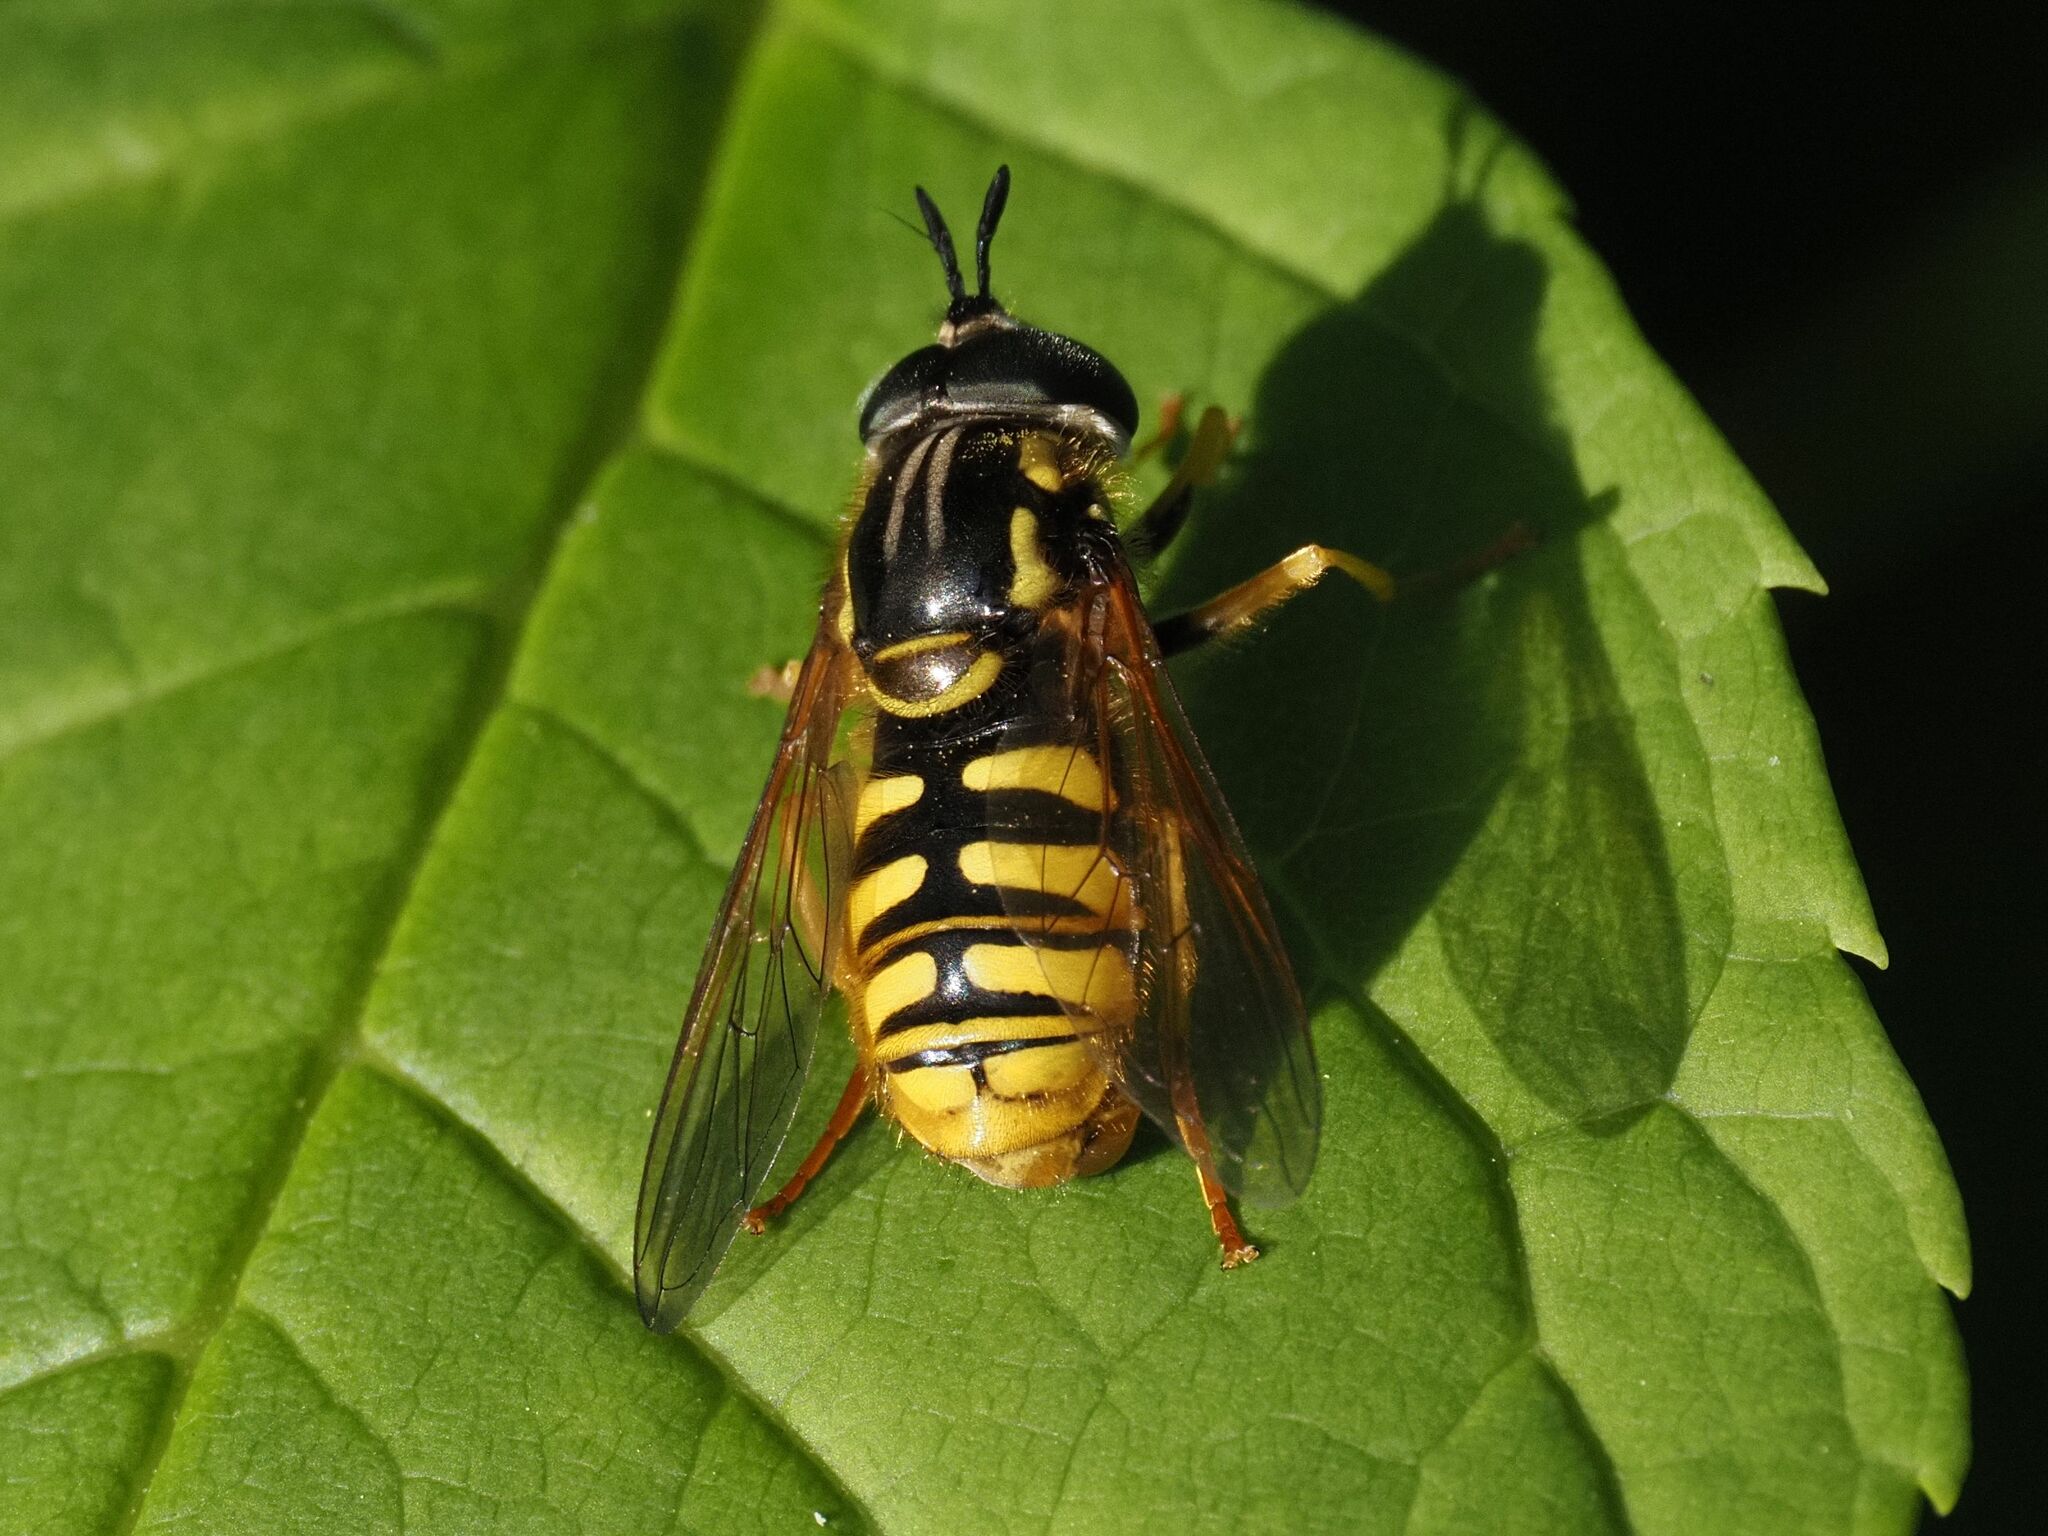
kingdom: Animalia
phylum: Arthropoda
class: Insecta
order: Diptera
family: Syrphidae
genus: Chrysotoxum
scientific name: Chrysotoxum cautum
